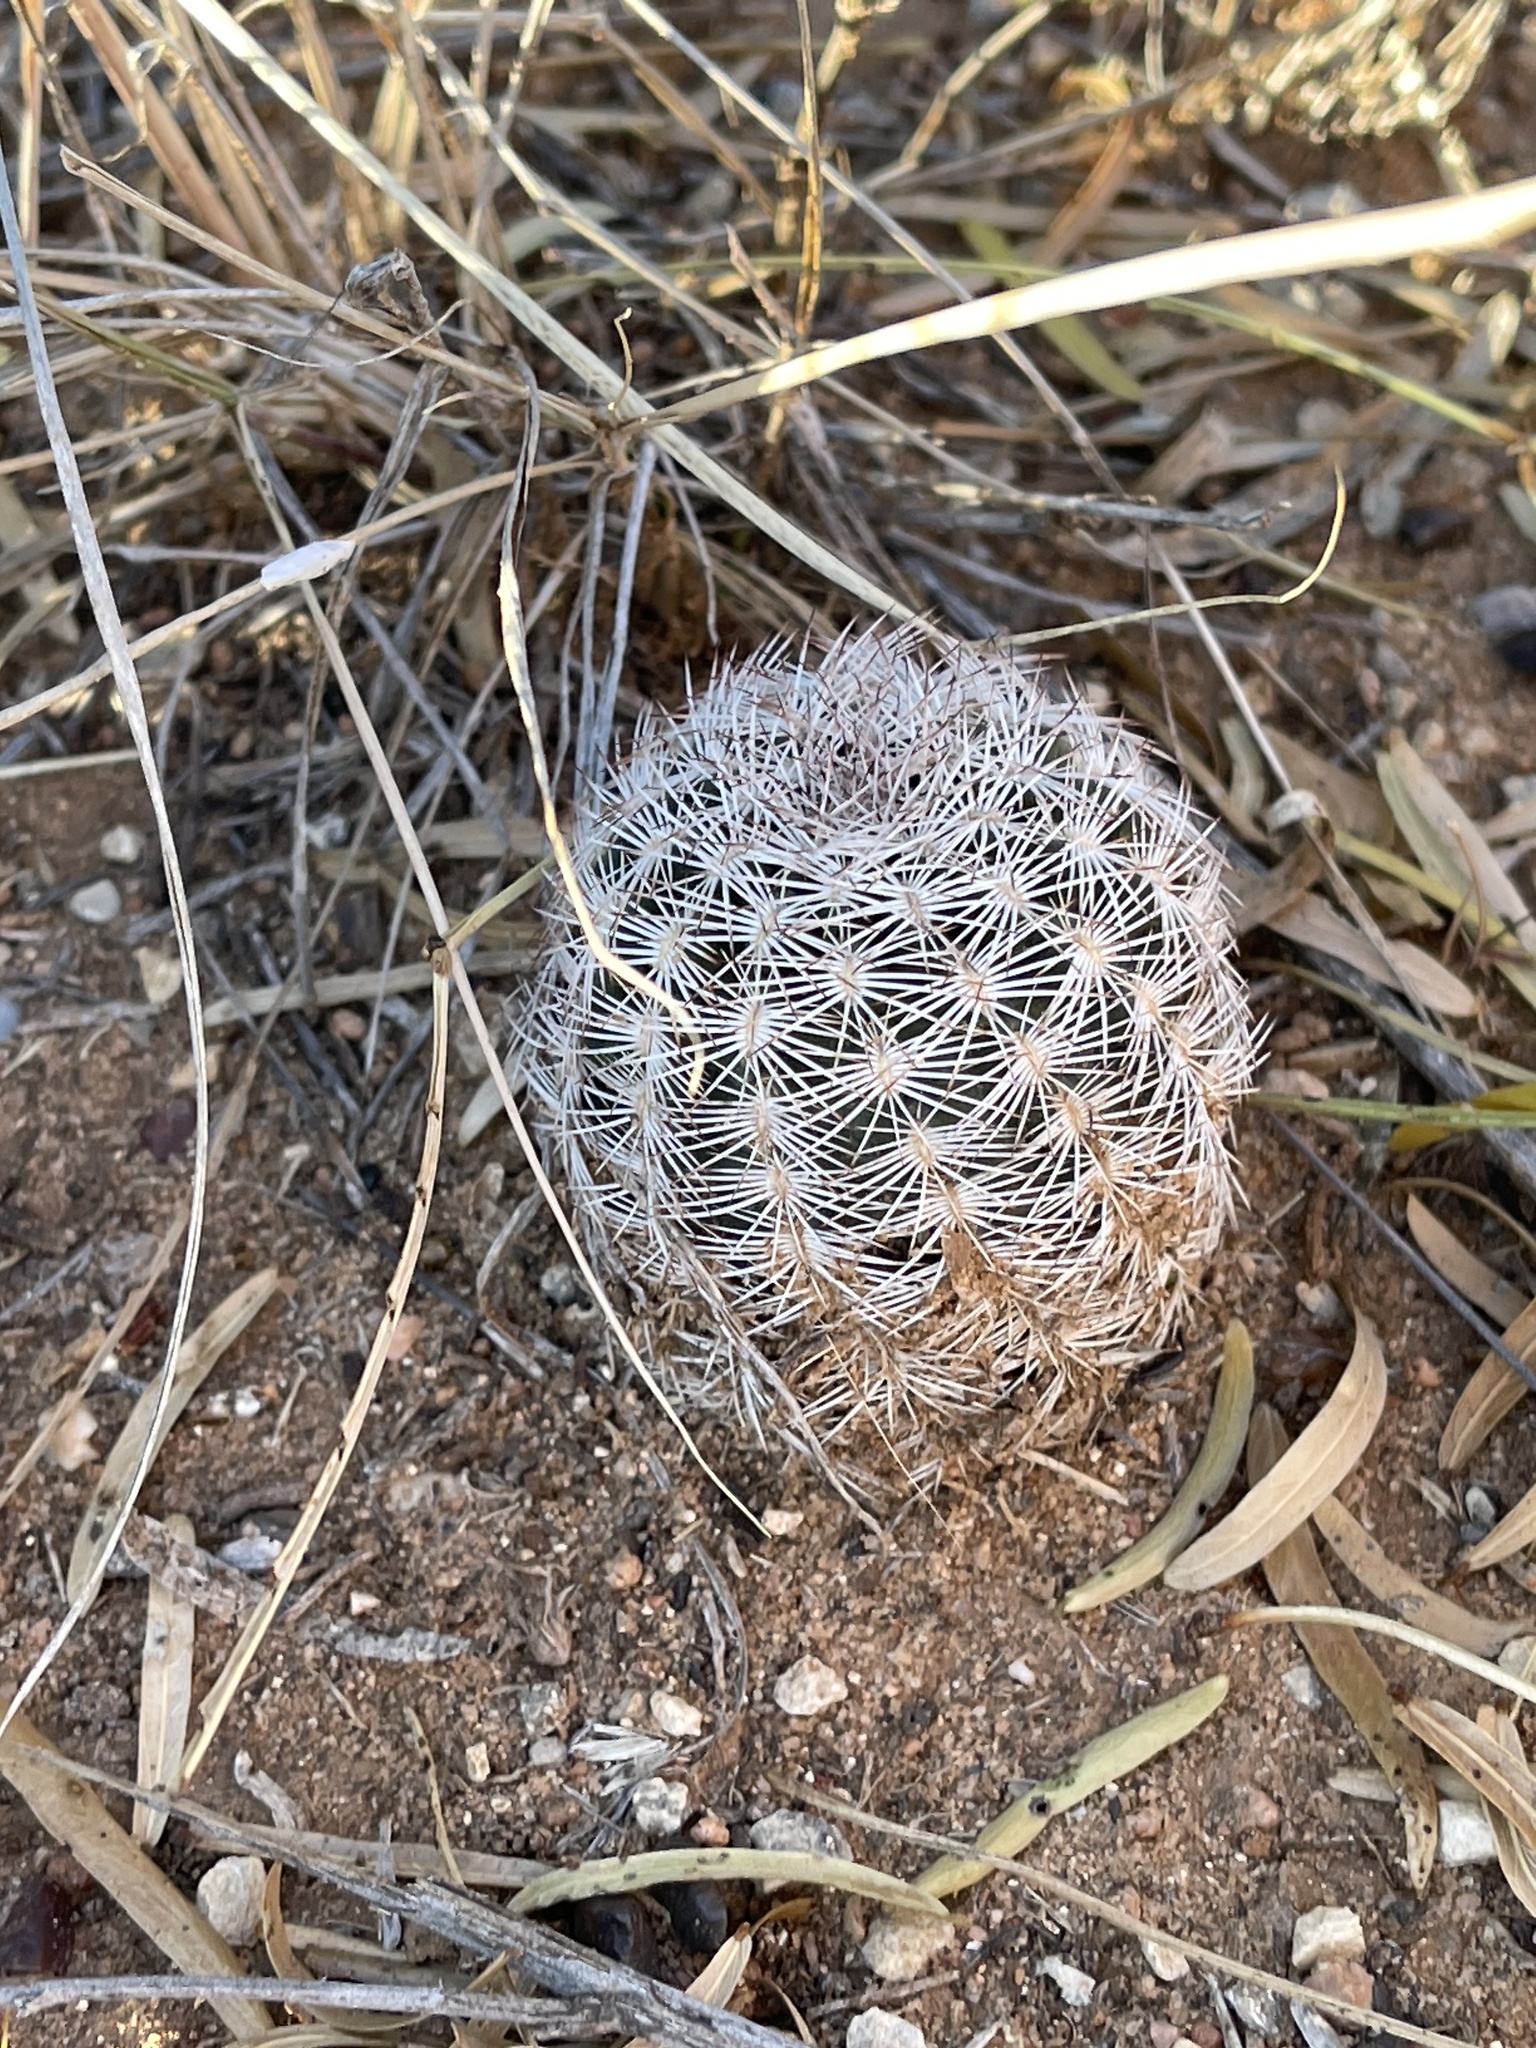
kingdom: Plantae
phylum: Tracheophyta
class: Magnoliopsida
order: Caryophyllales
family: Cactaceae
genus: Echinocereus
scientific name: Echinocereus reichenbachii
